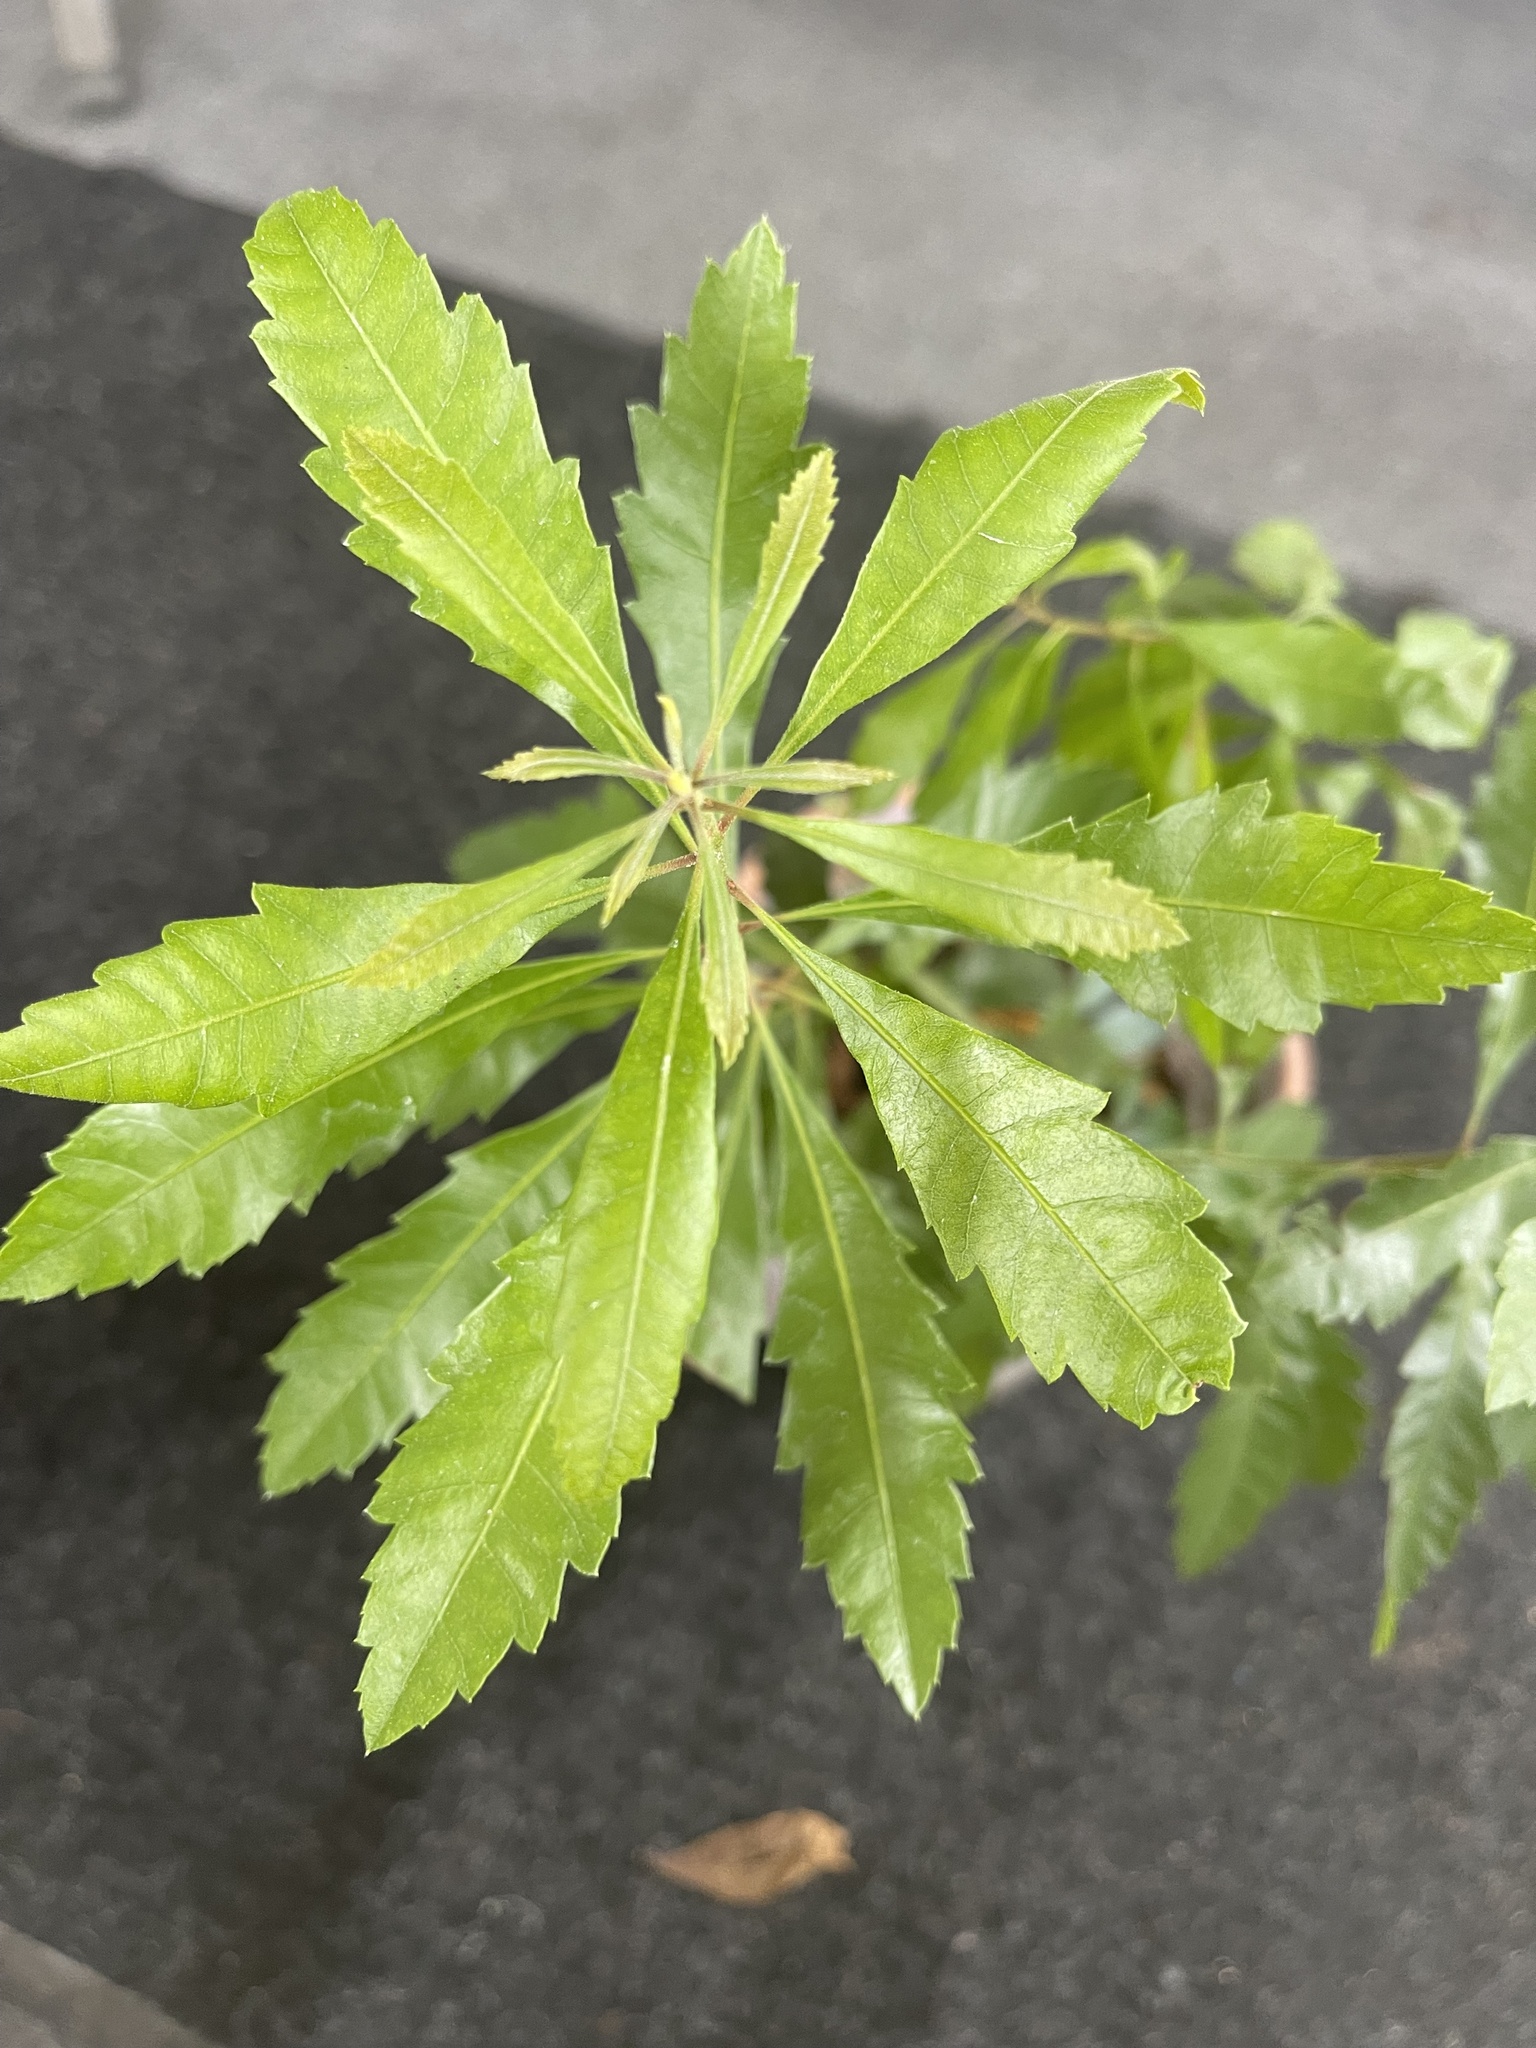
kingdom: Plantae
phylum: Tracheophyta
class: Magnoliopsida
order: Fagales
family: Myricaceae
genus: Morella
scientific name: Morella cerifera
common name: Wax myrtle
